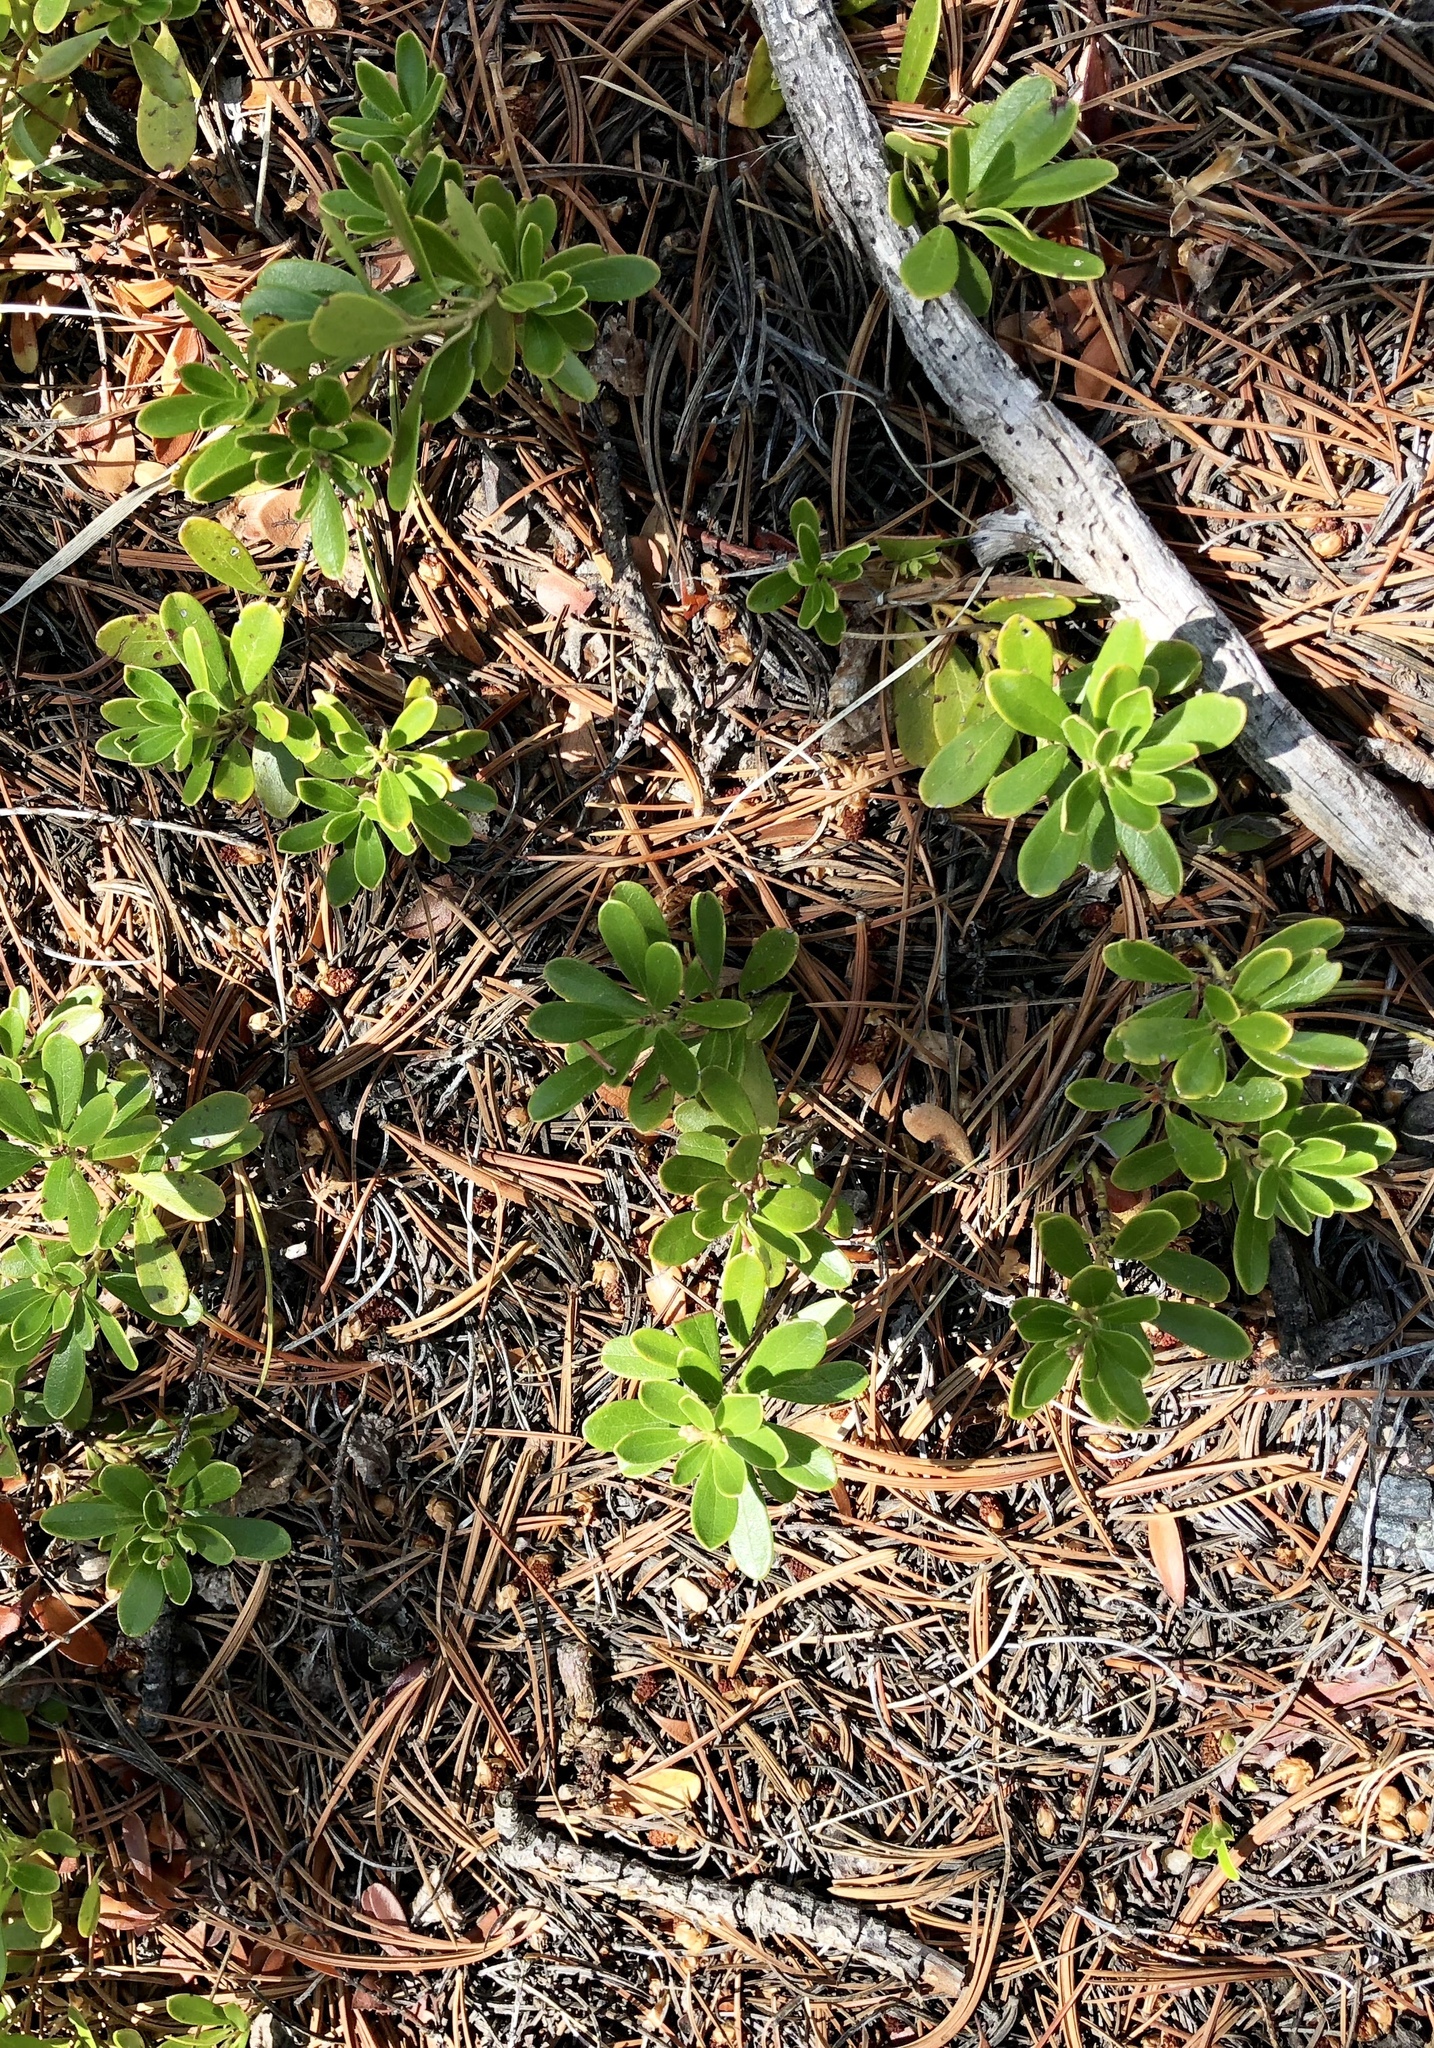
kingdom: Plantae
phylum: Tracheophyta
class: Magnoliopsida
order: Ericales
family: Ericaceae
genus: Arctostaphylos
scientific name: Arctostaphylos uva-ursi
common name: Bearberry
